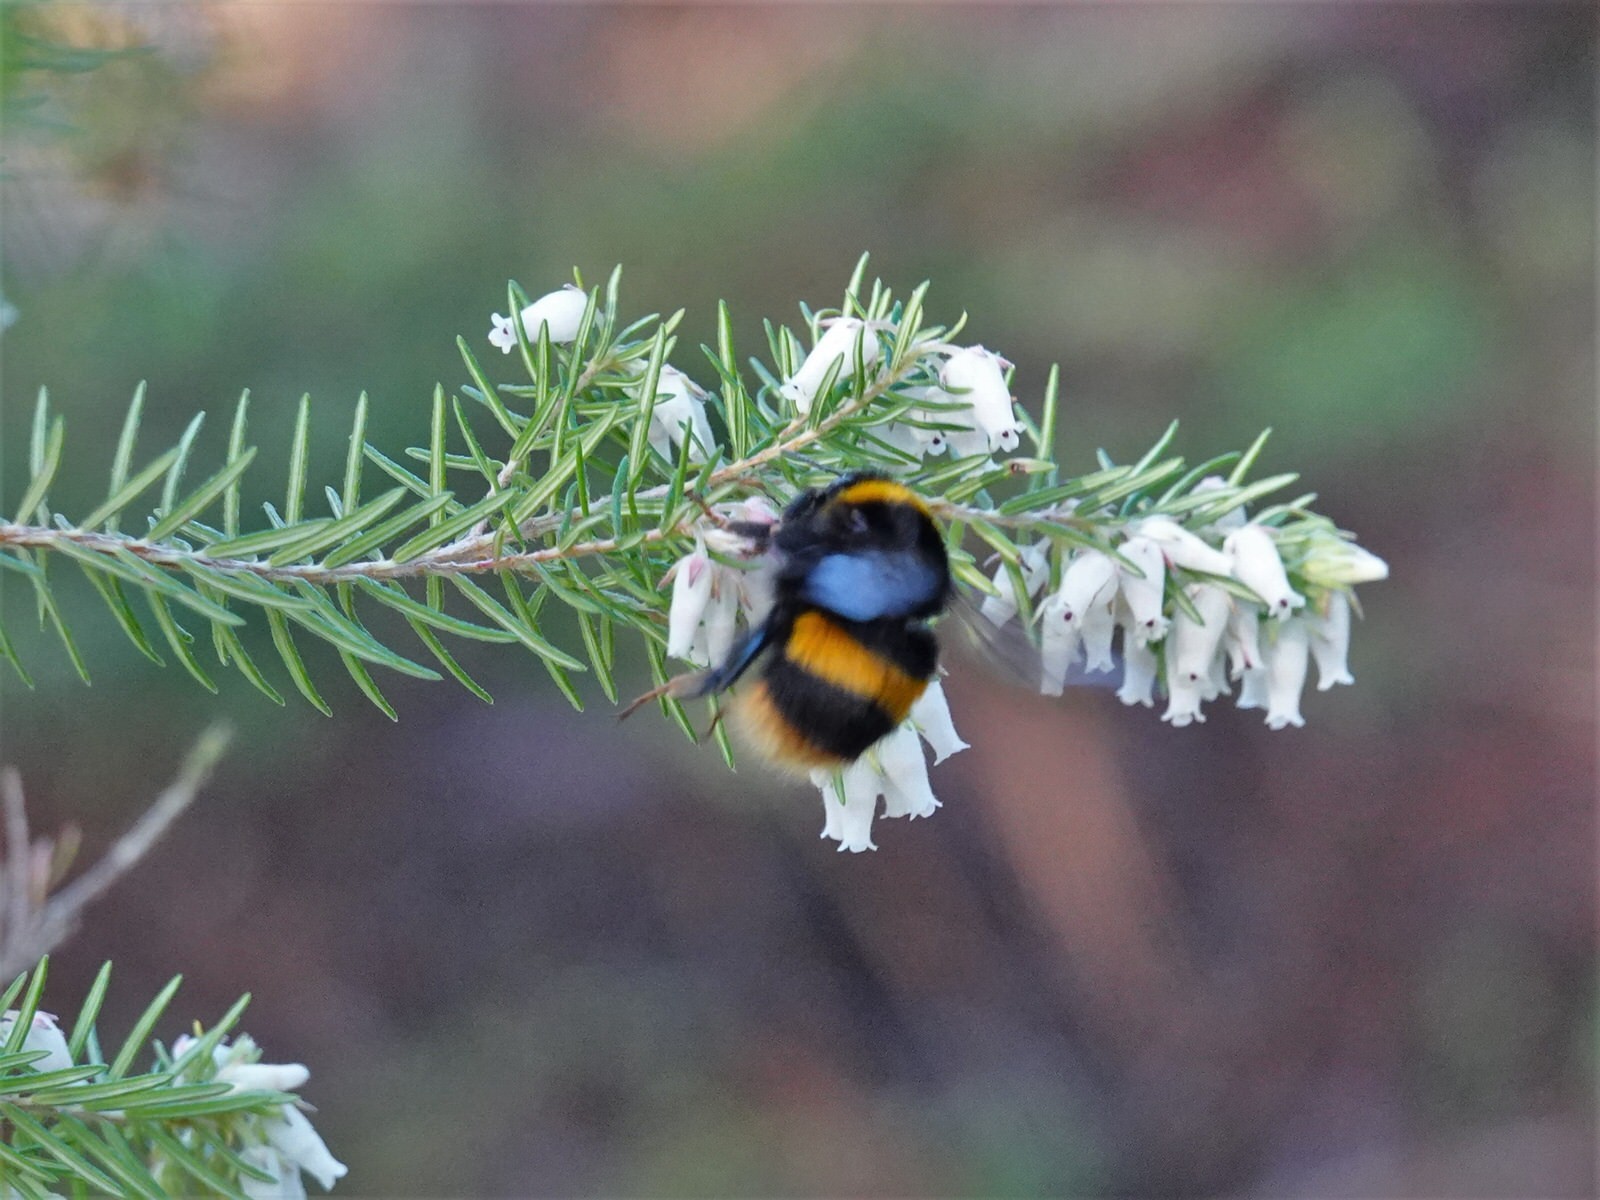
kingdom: Animalia
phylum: Arthropoda
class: Insecta
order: Hymenoptera
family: Apidae
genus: Bombus
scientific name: Bombus terrestris
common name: Buff-tailed bumblebee
